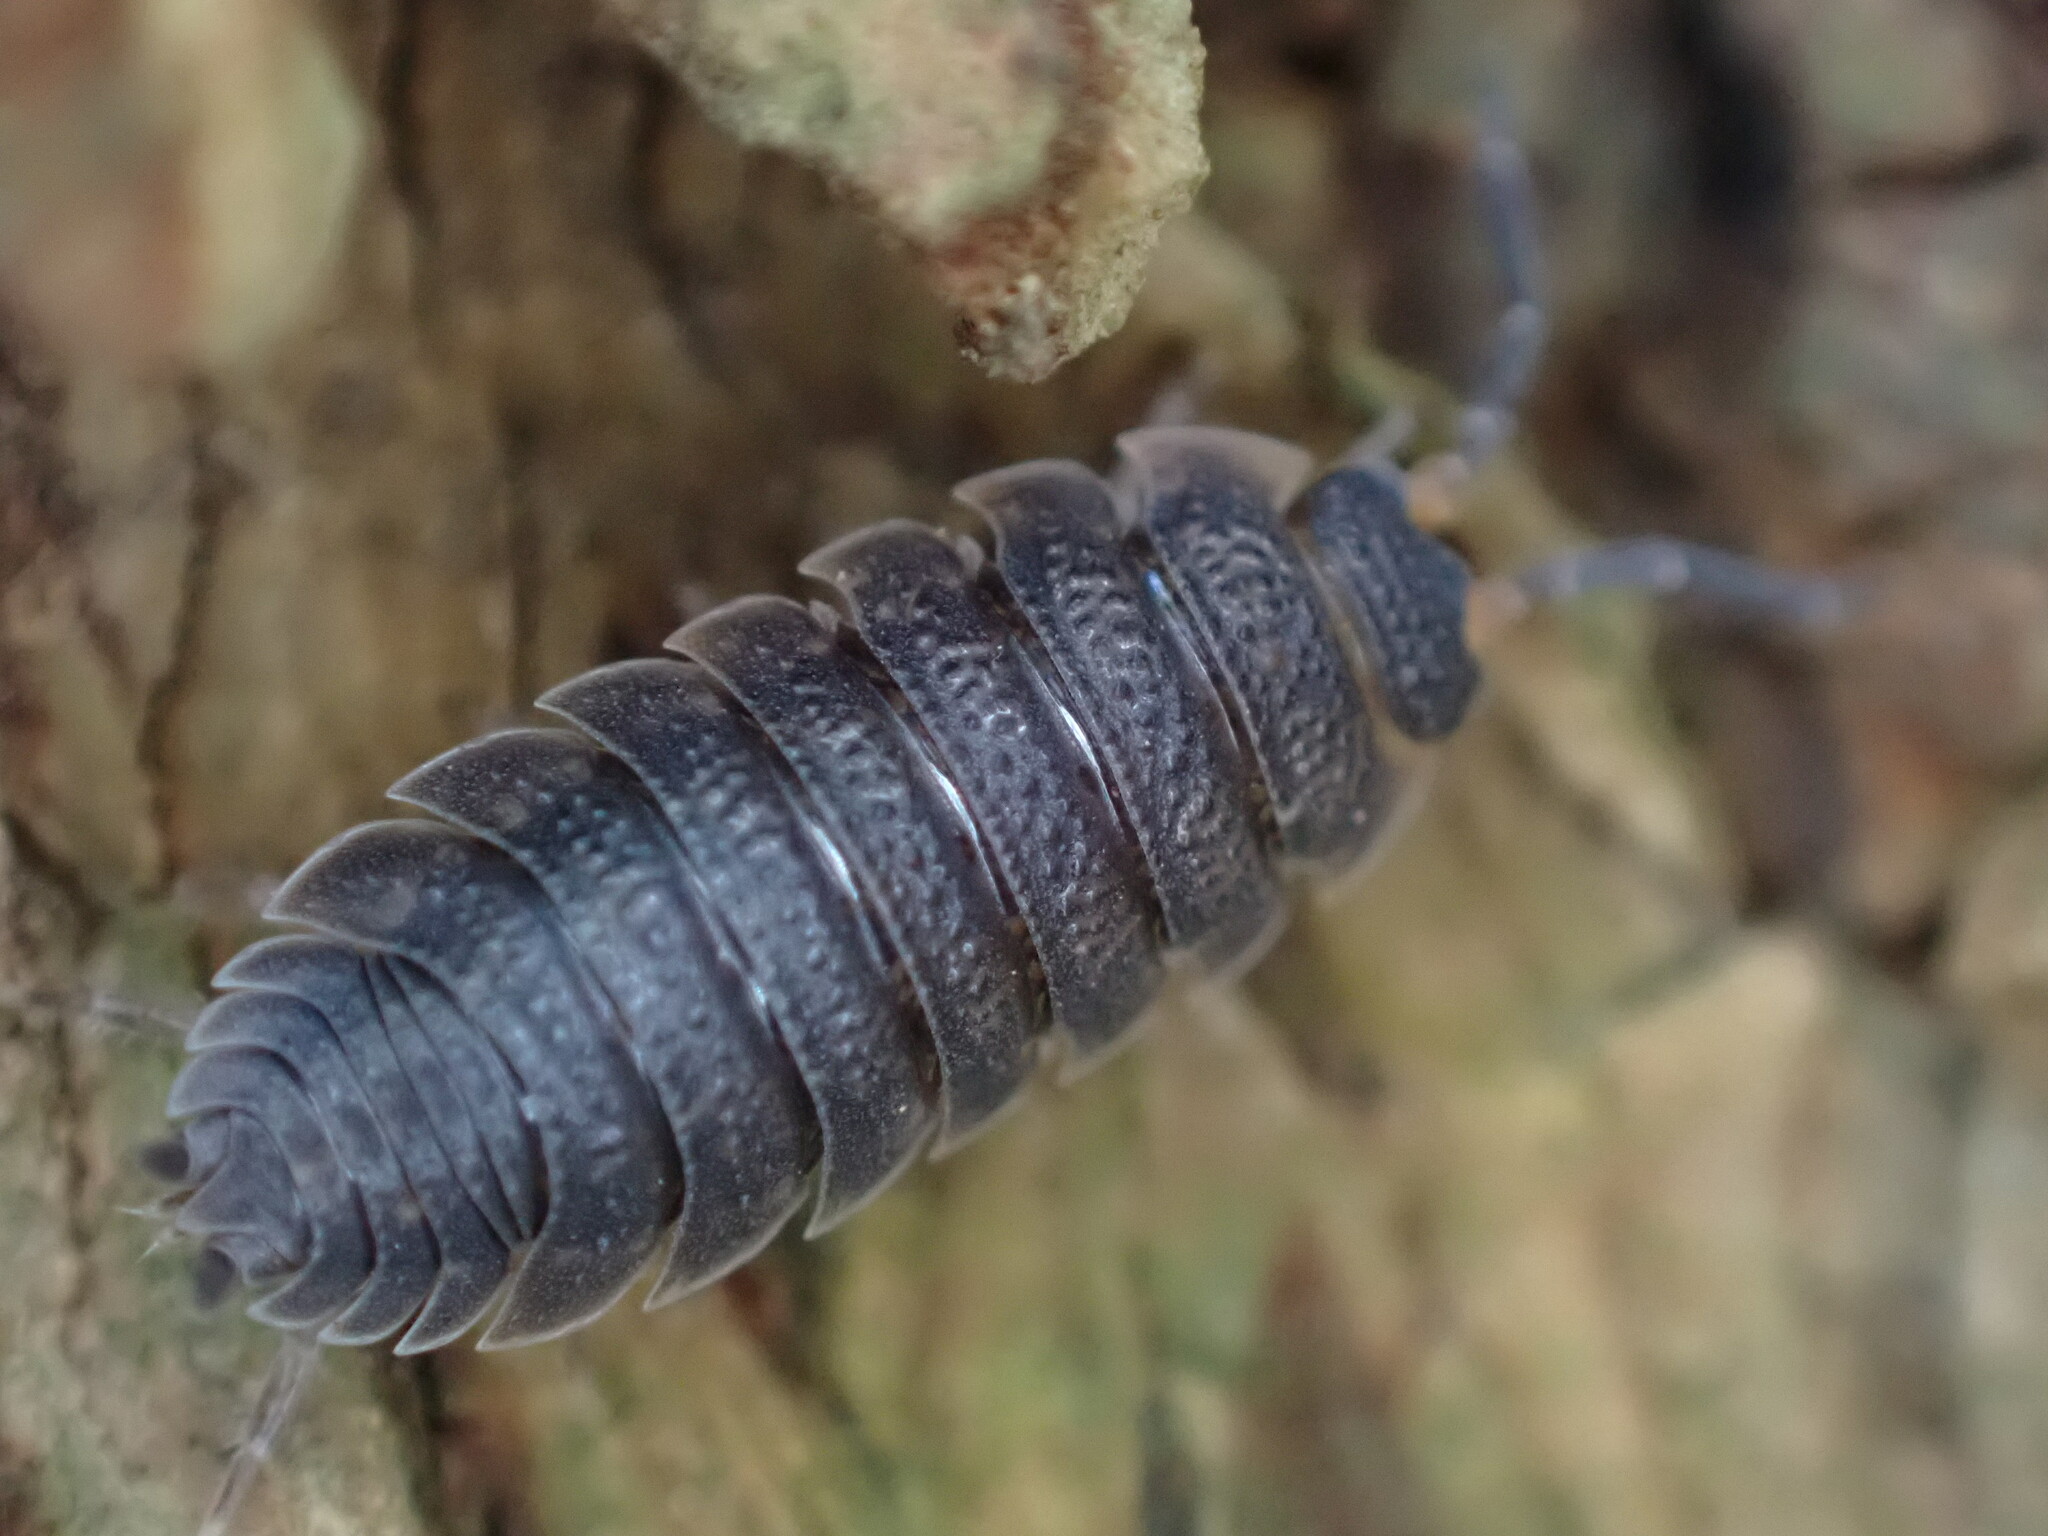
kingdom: Animalia
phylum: Arthropoda
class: Malacostraca
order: Isopoda
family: Porcellionidae
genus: Porcellio
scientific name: Porcellio scaber
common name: Common rough woodlouse
